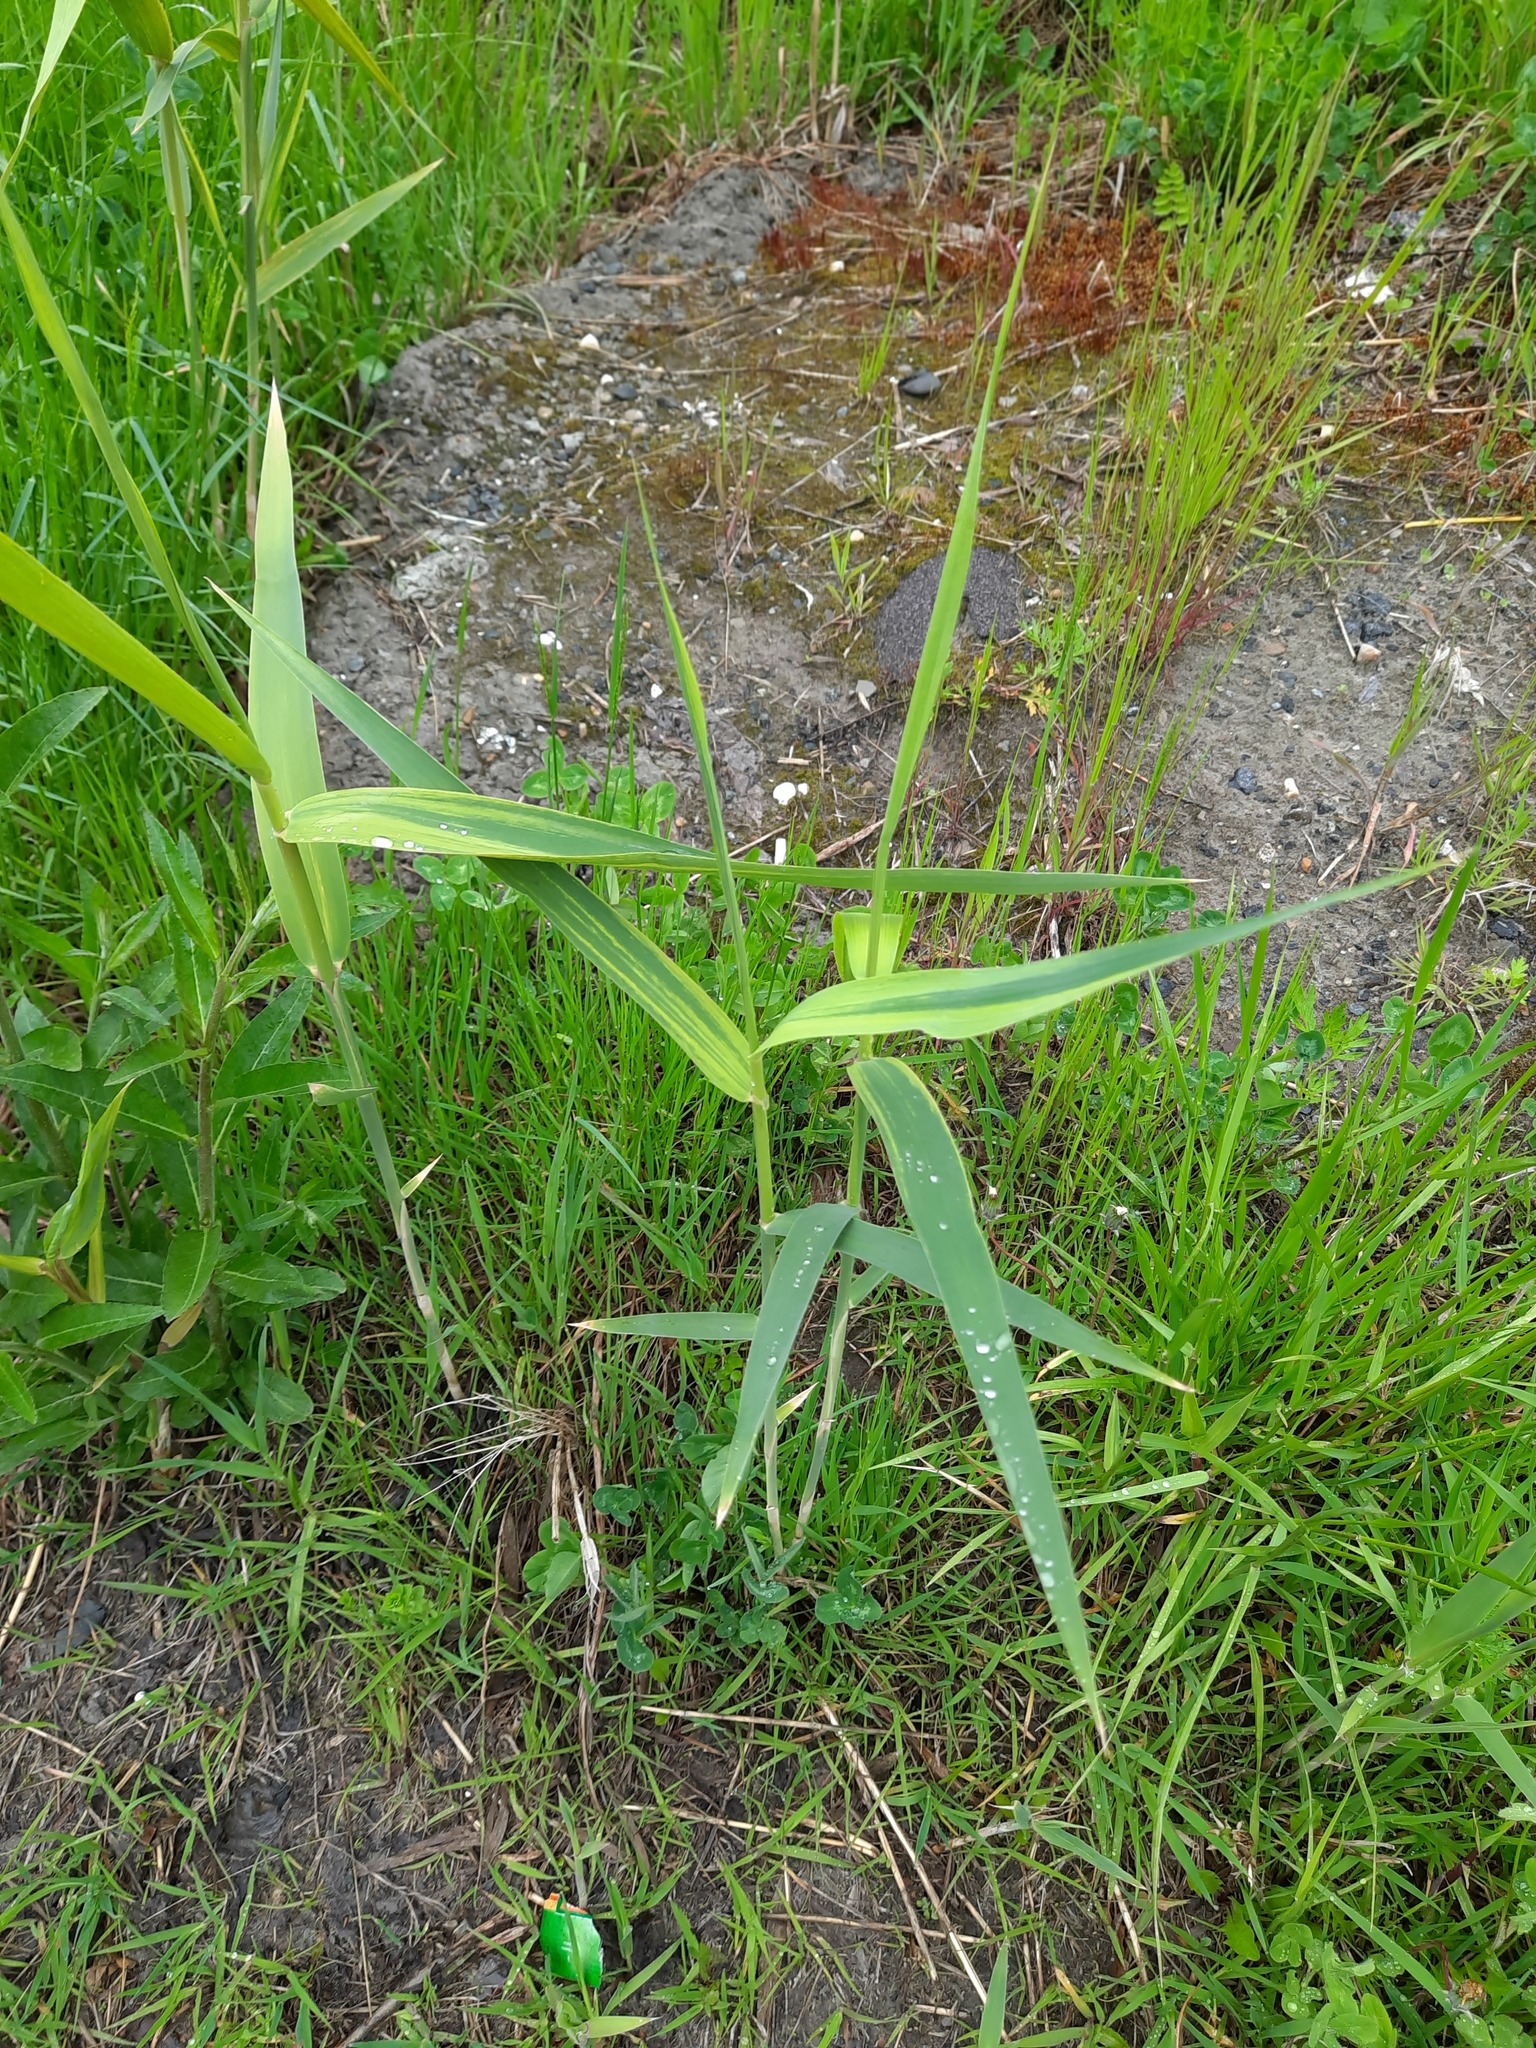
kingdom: Plantae
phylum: Tracheophyta
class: Liliopsida
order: Poales
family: Poaceae
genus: Phragmites
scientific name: Phragmites australis
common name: Common reed
